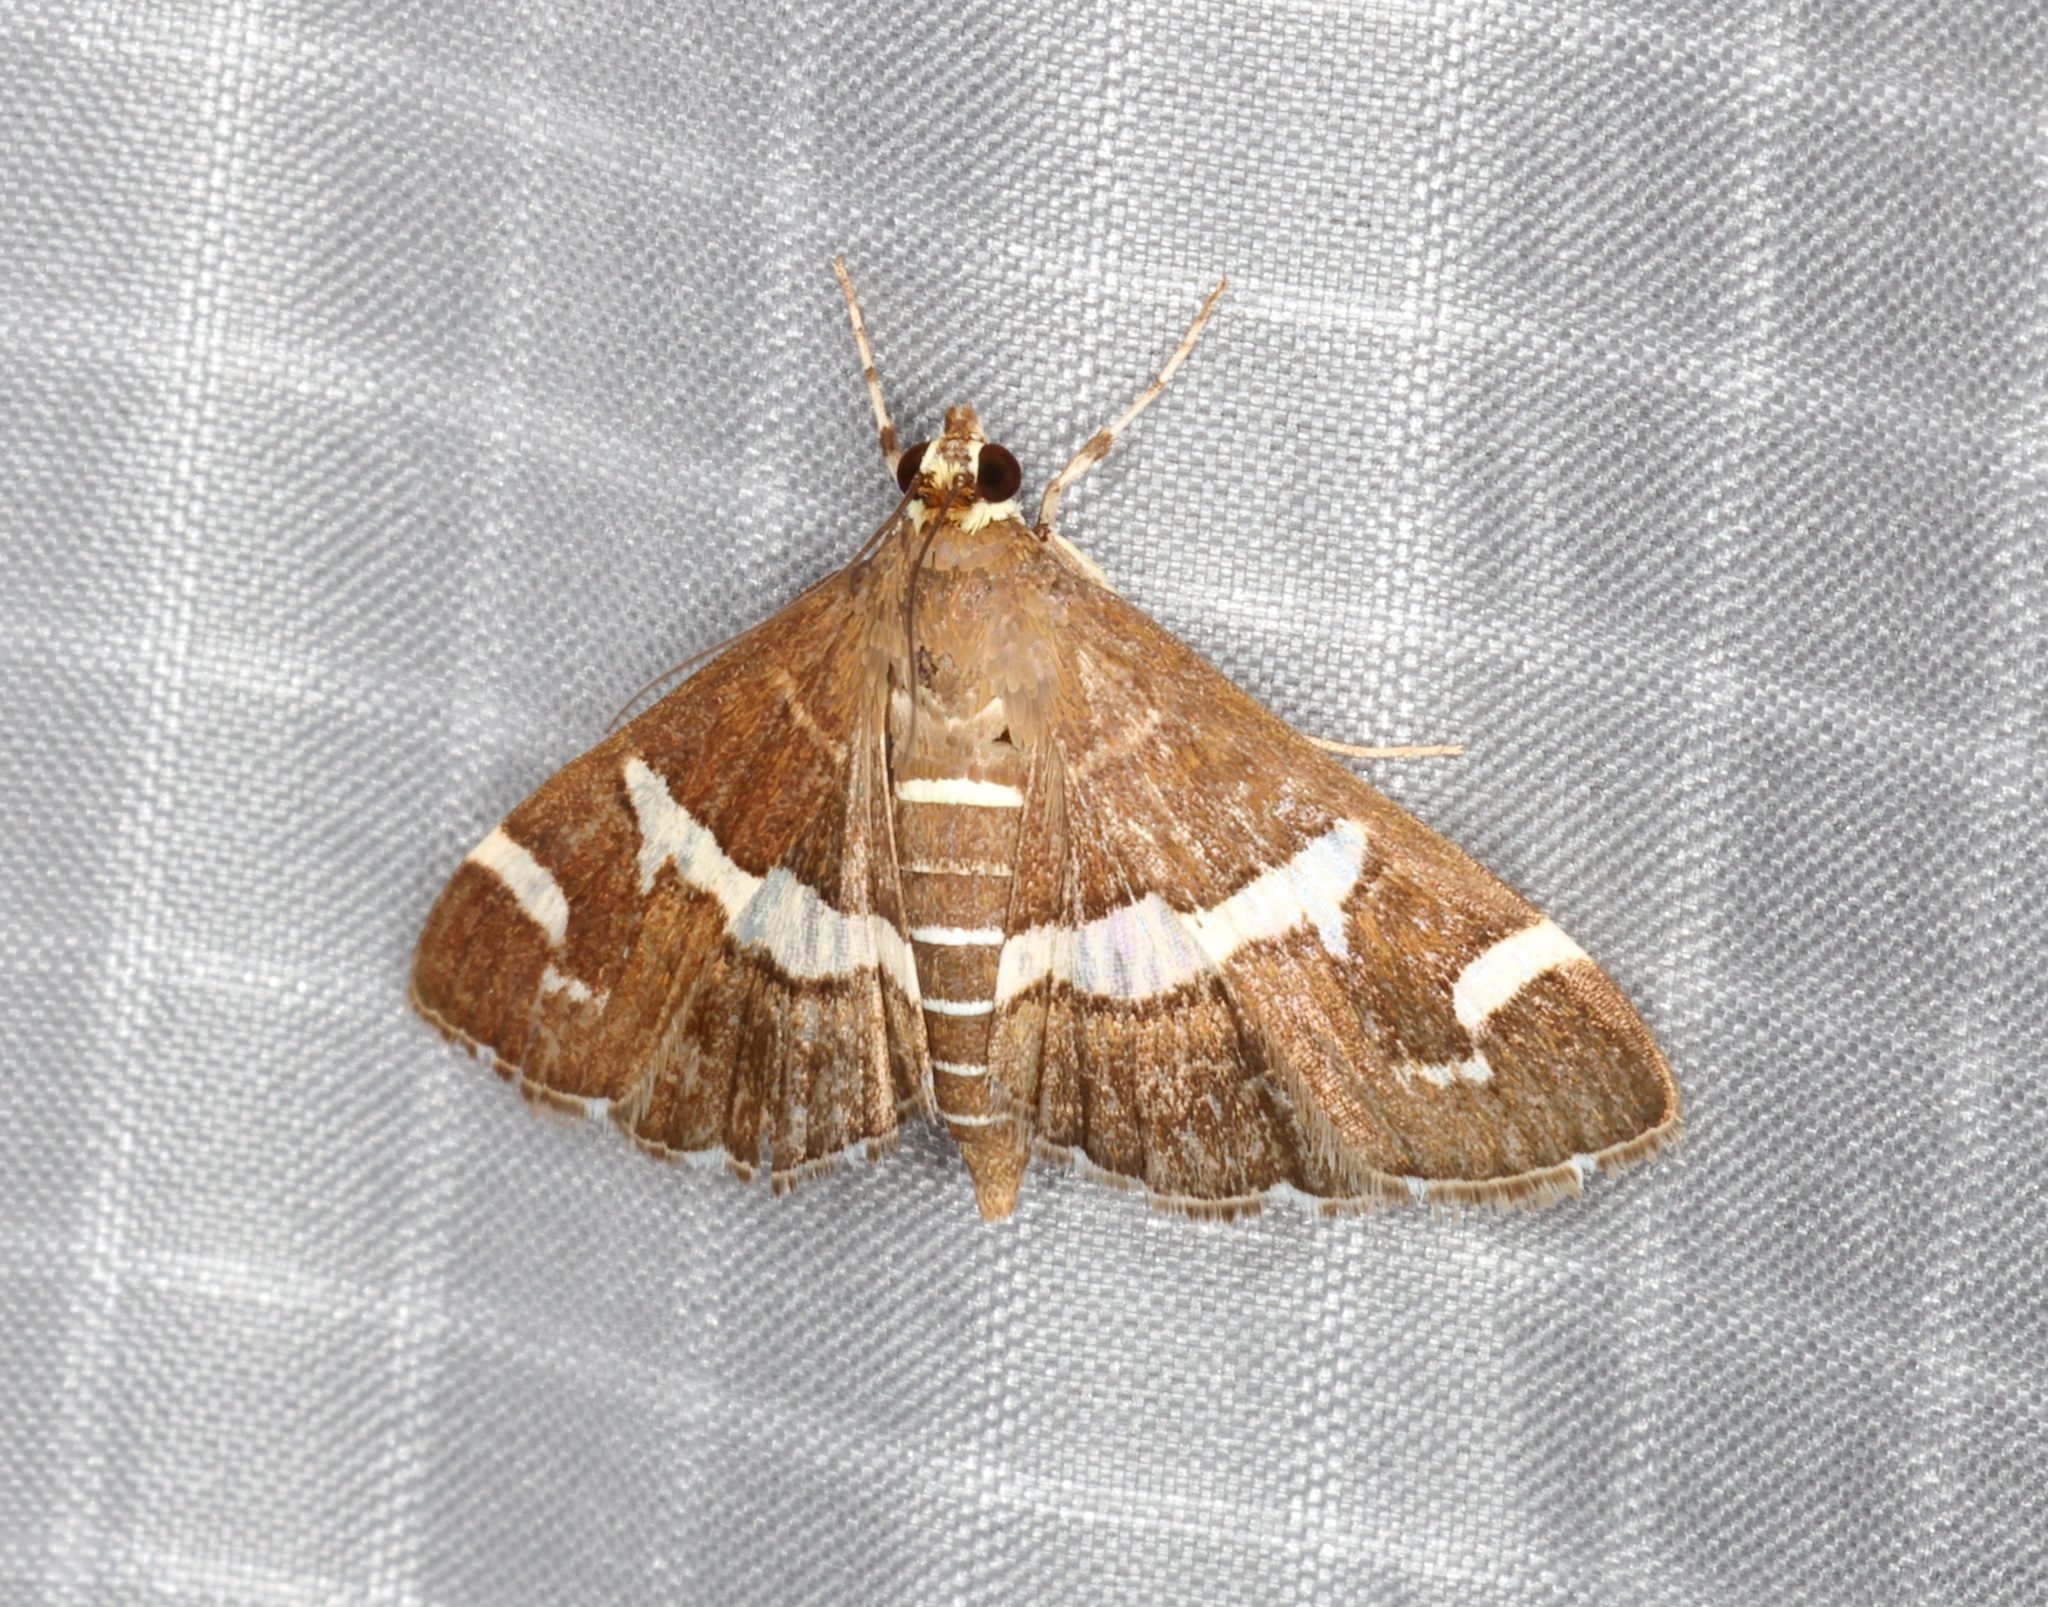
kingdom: Animalia
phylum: Arthropoda
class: Insecta
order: Lepidoptera
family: Crambidae
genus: Spoladea
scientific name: Spoladea recurvalis
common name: Beet webworm moth
